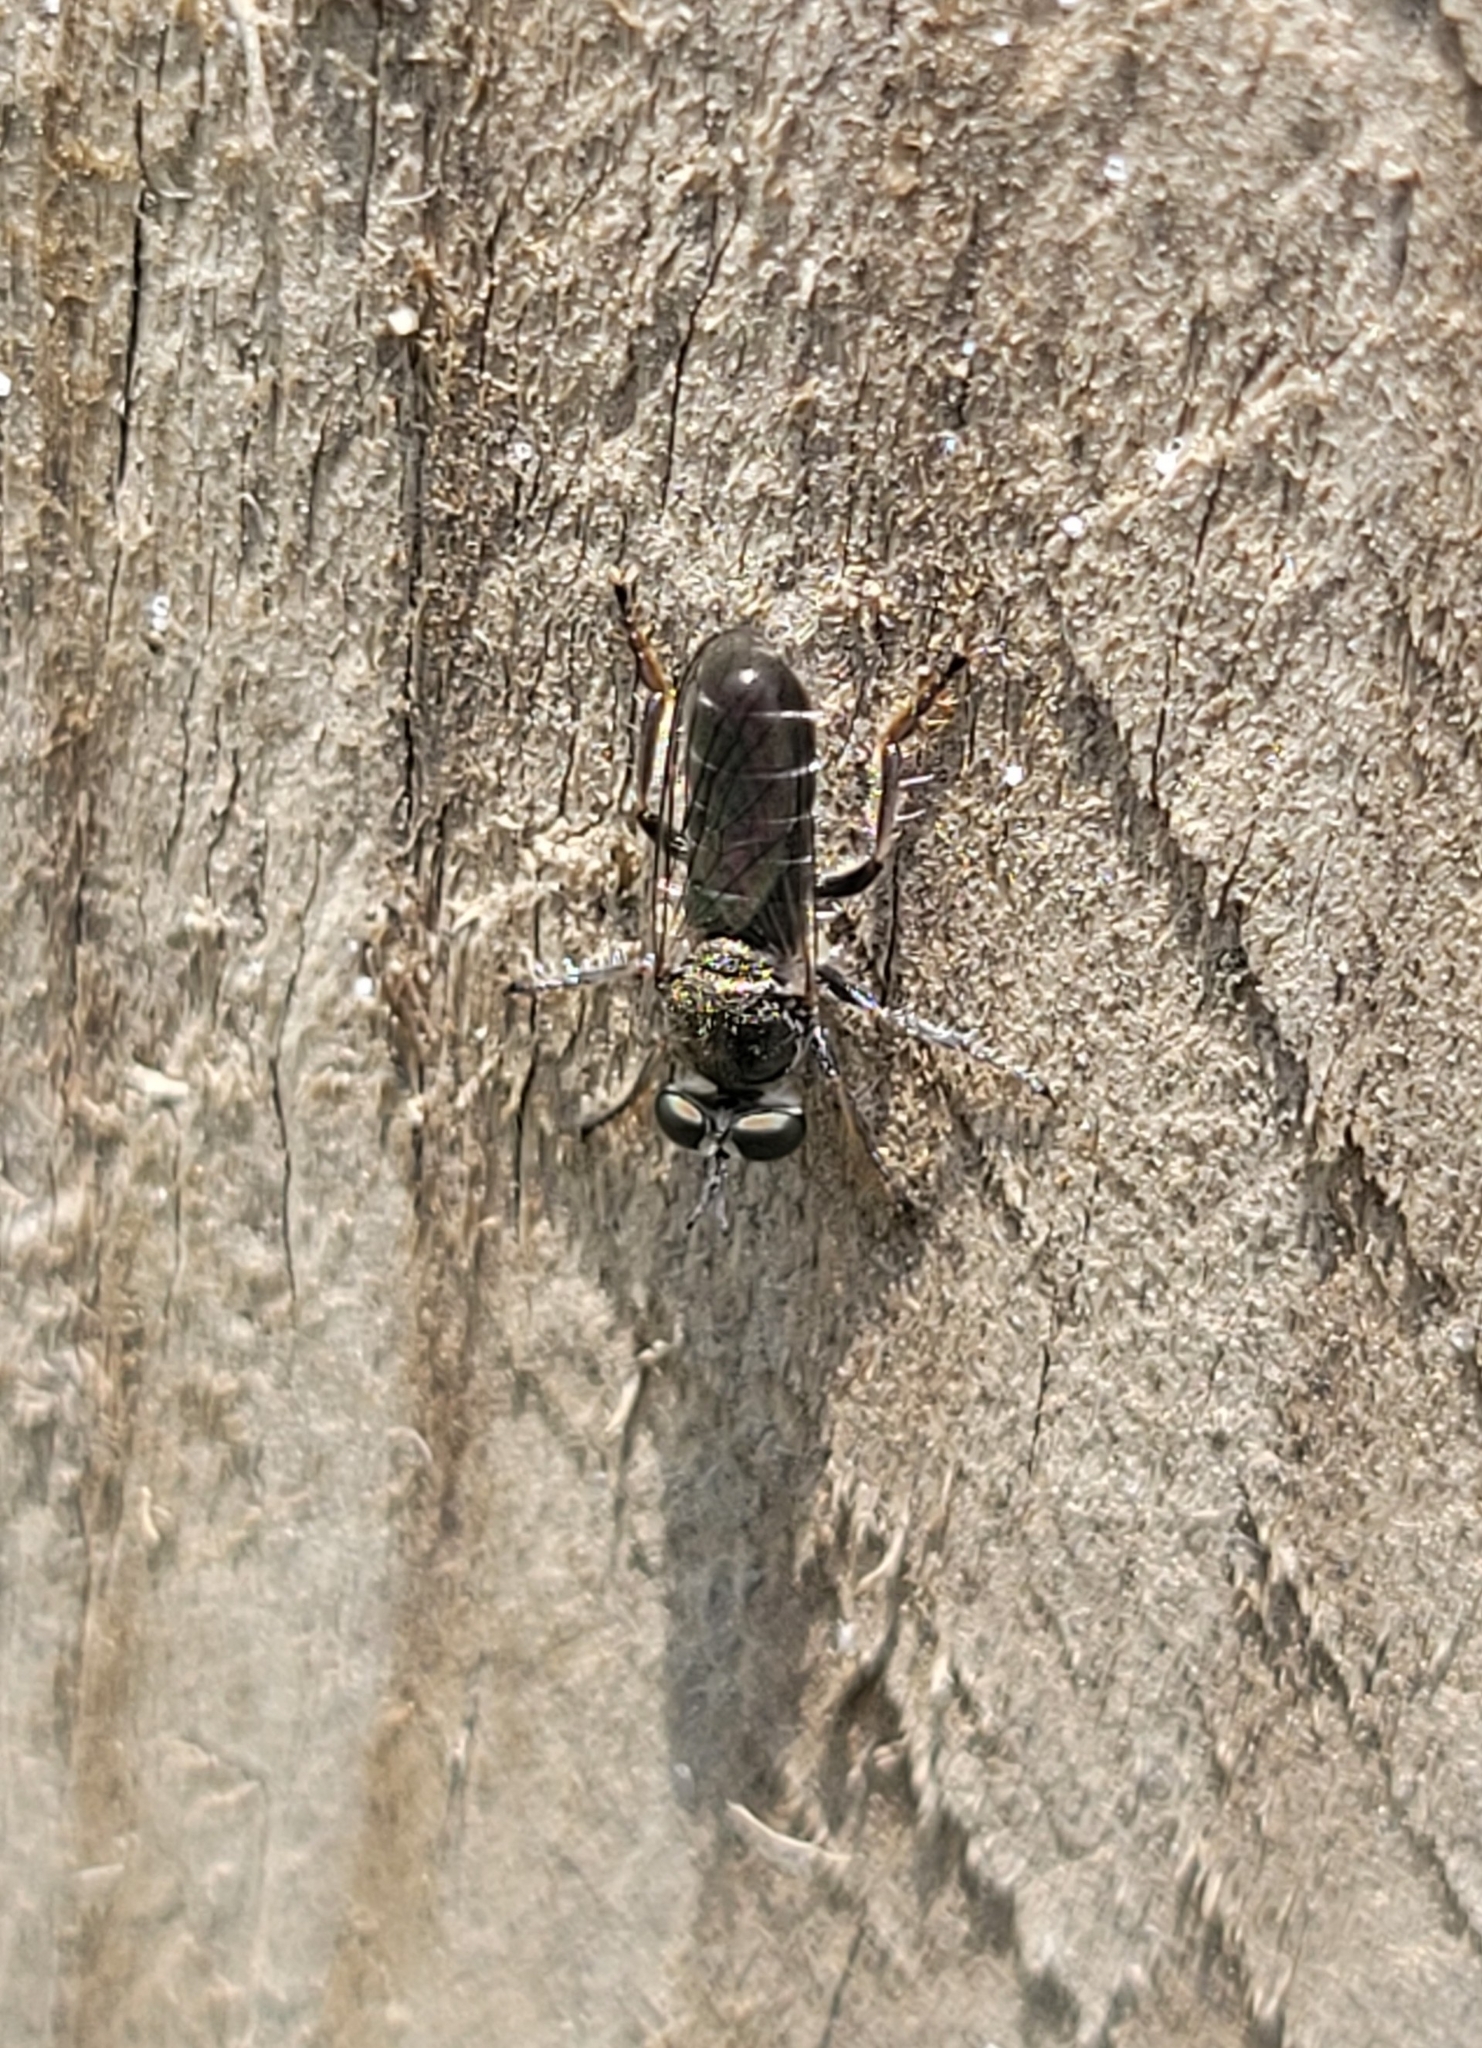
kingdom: Animalia
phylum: Arthropoda
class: Insecta
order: Diptera
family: Asilidae
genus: Atomosia
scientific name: Atomosia puella
